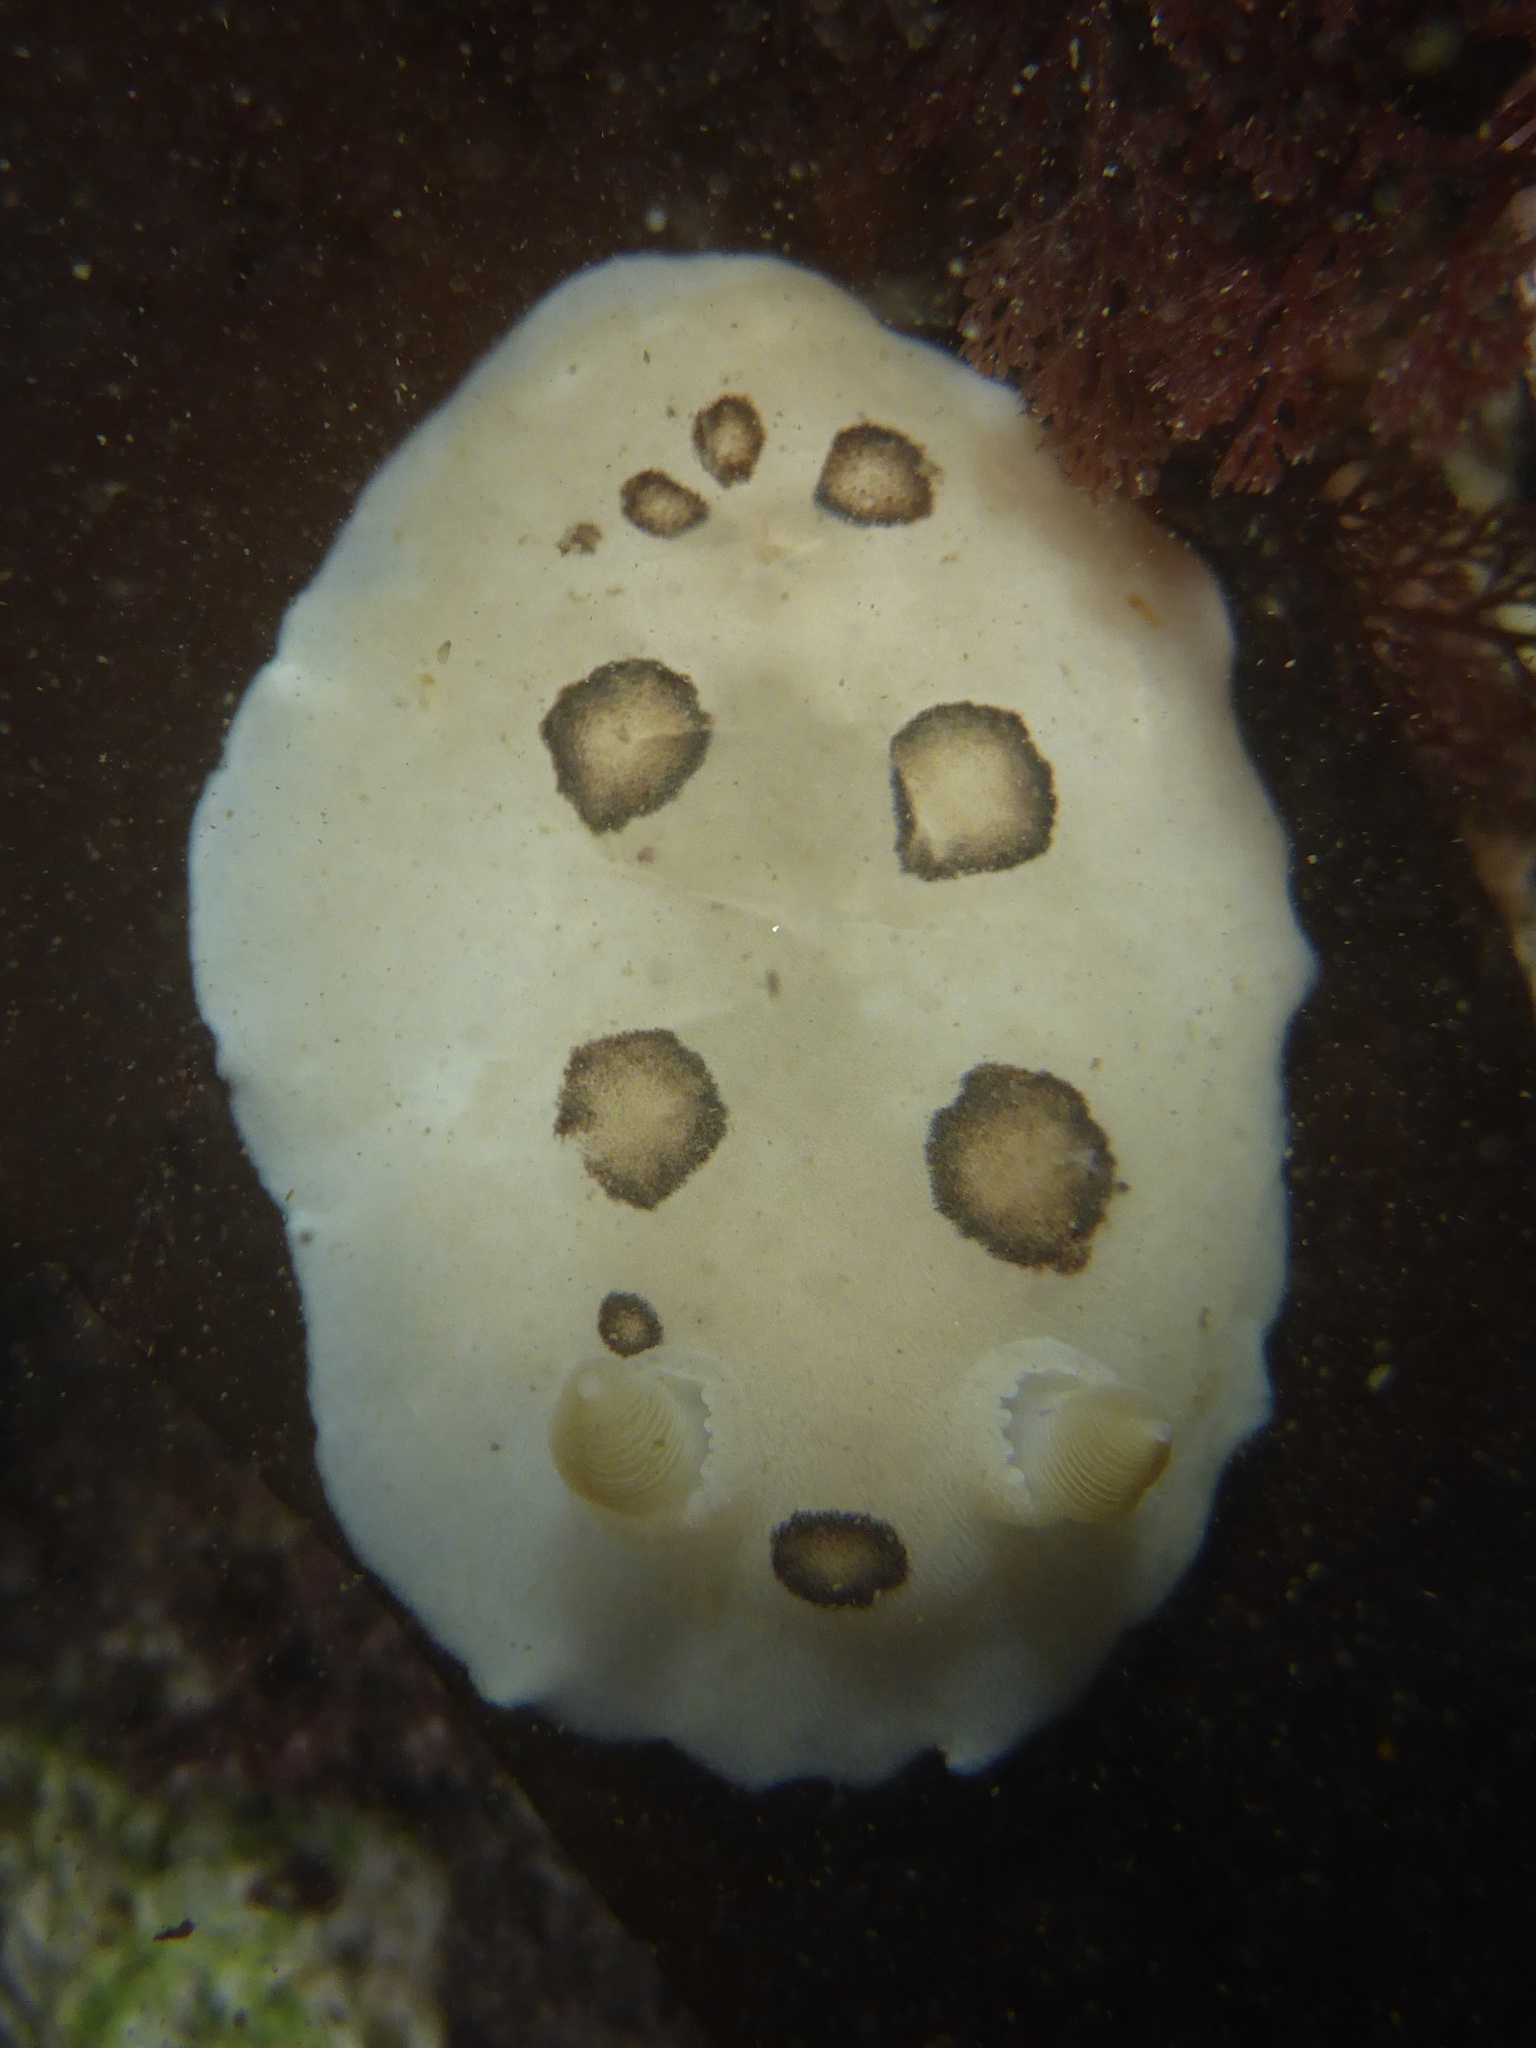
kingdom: Animalia
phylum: Mollusca
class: Gastropoda
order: Nudibranchia
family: Discodorididae
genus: Diaulula
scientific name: Diaulula sandiegensis
